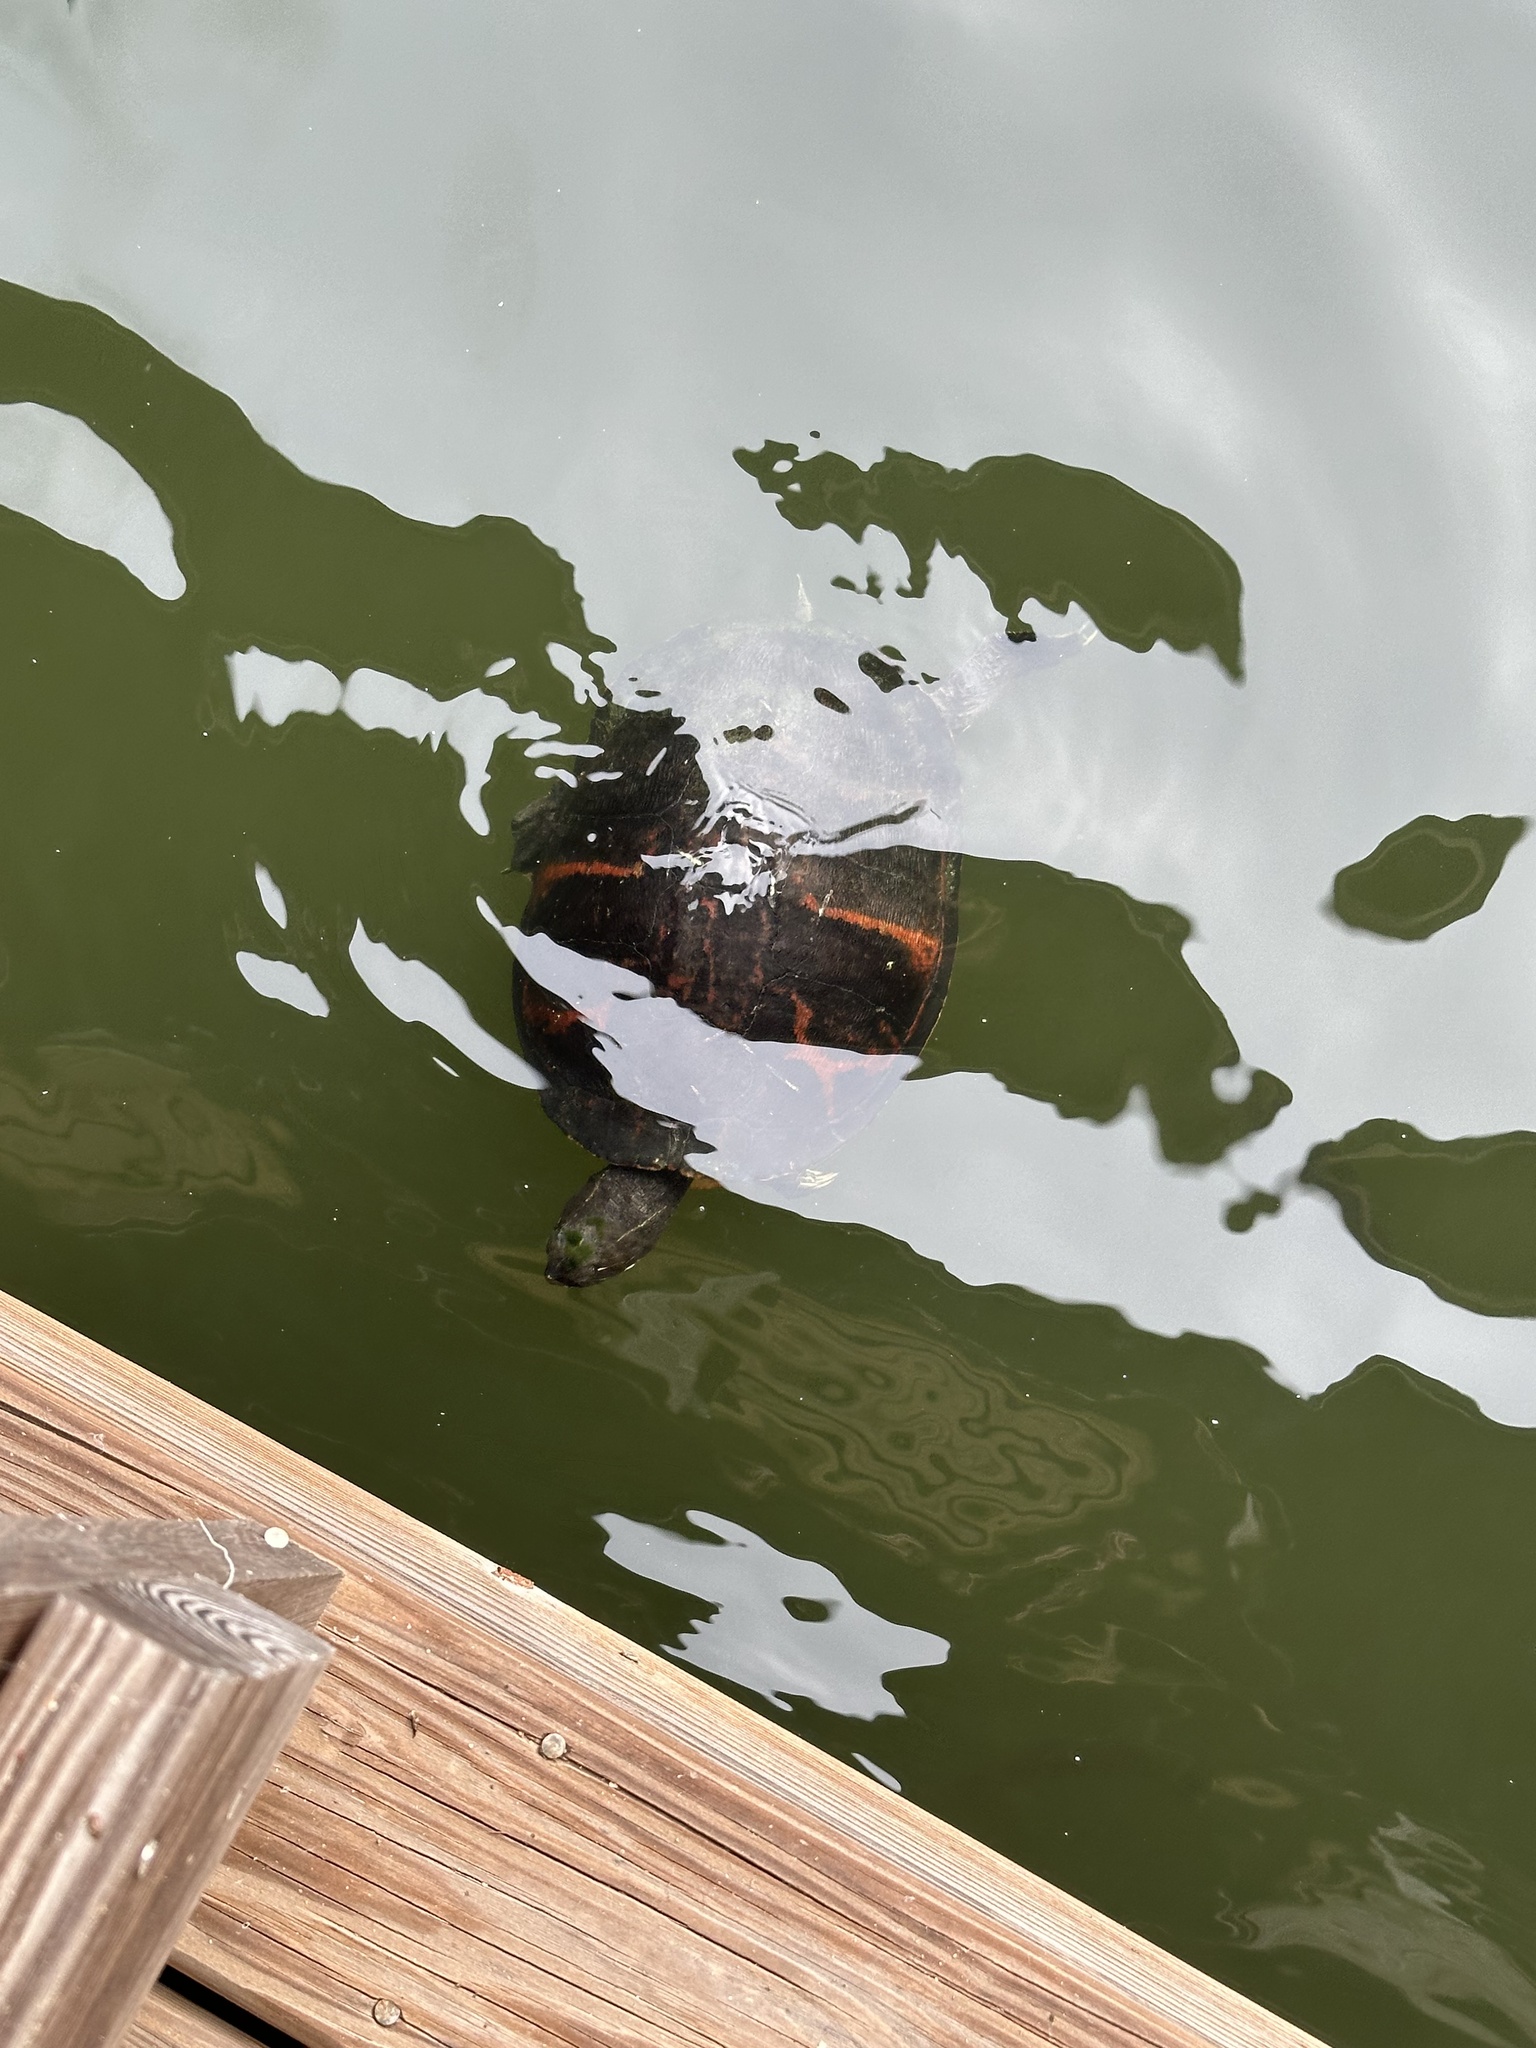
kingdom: Animalia
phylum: Chordata
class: Testudines
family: Emydidae
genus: Pseudemys
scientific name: Pseudemys nelsoni
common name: Florida red-bellied turtle
